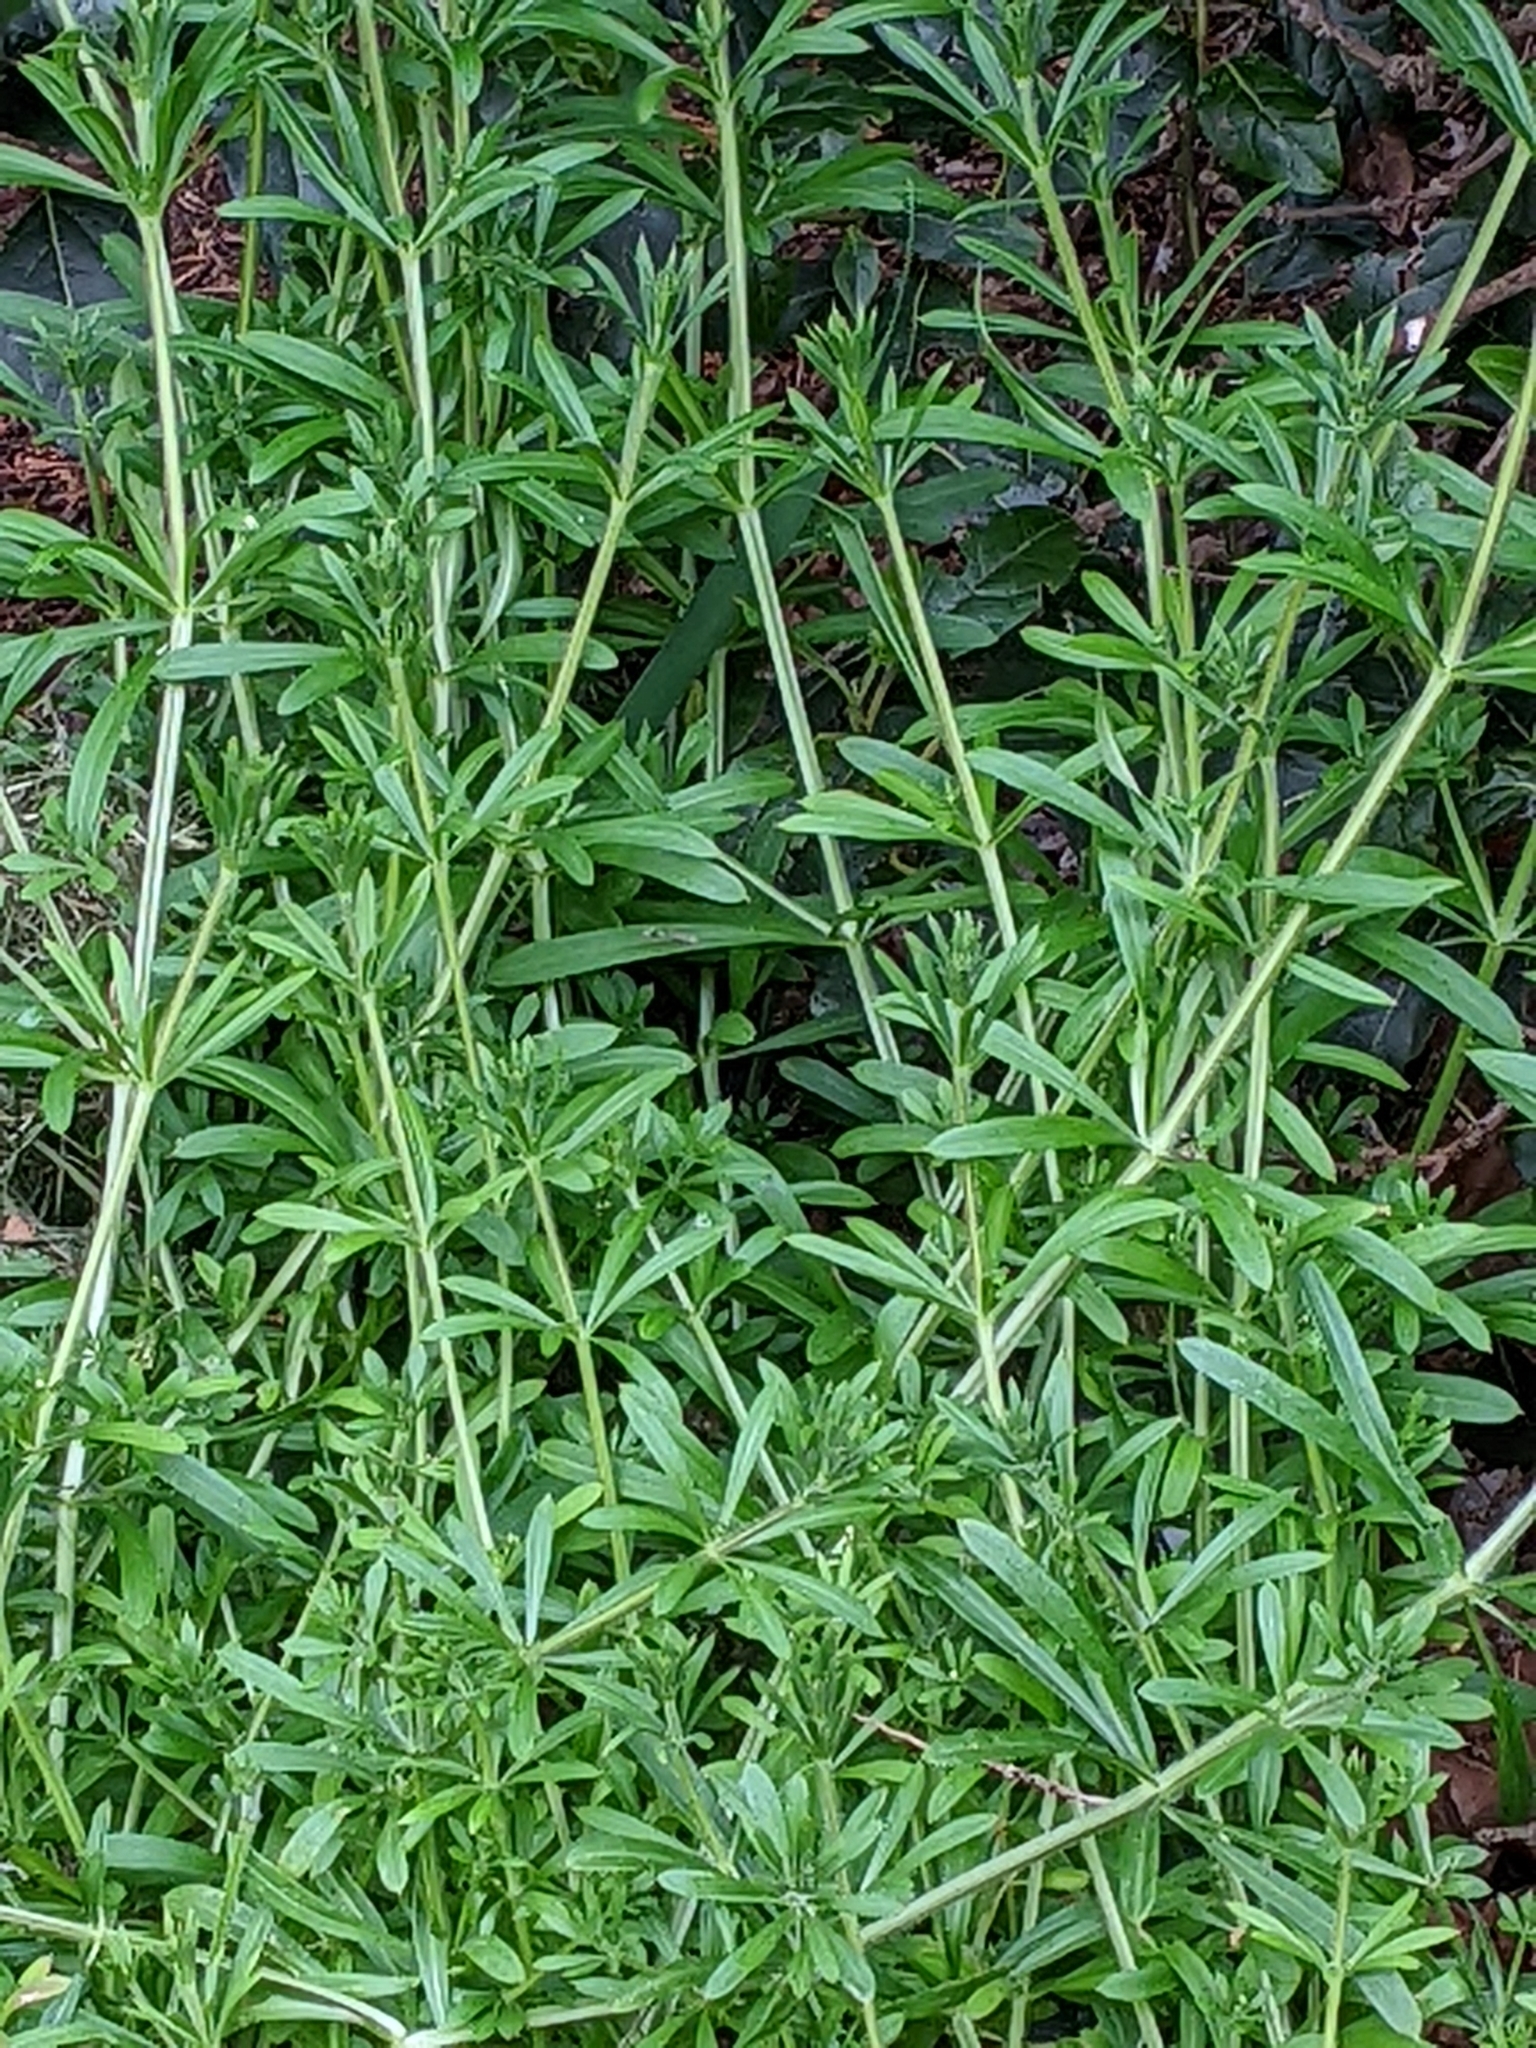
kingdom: Plantae
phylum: Tracheophyta
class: Magnoliopsida
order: Gentianales
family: Rubiaceae
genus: Galium
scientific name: Galium aparine
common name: Cleavers
